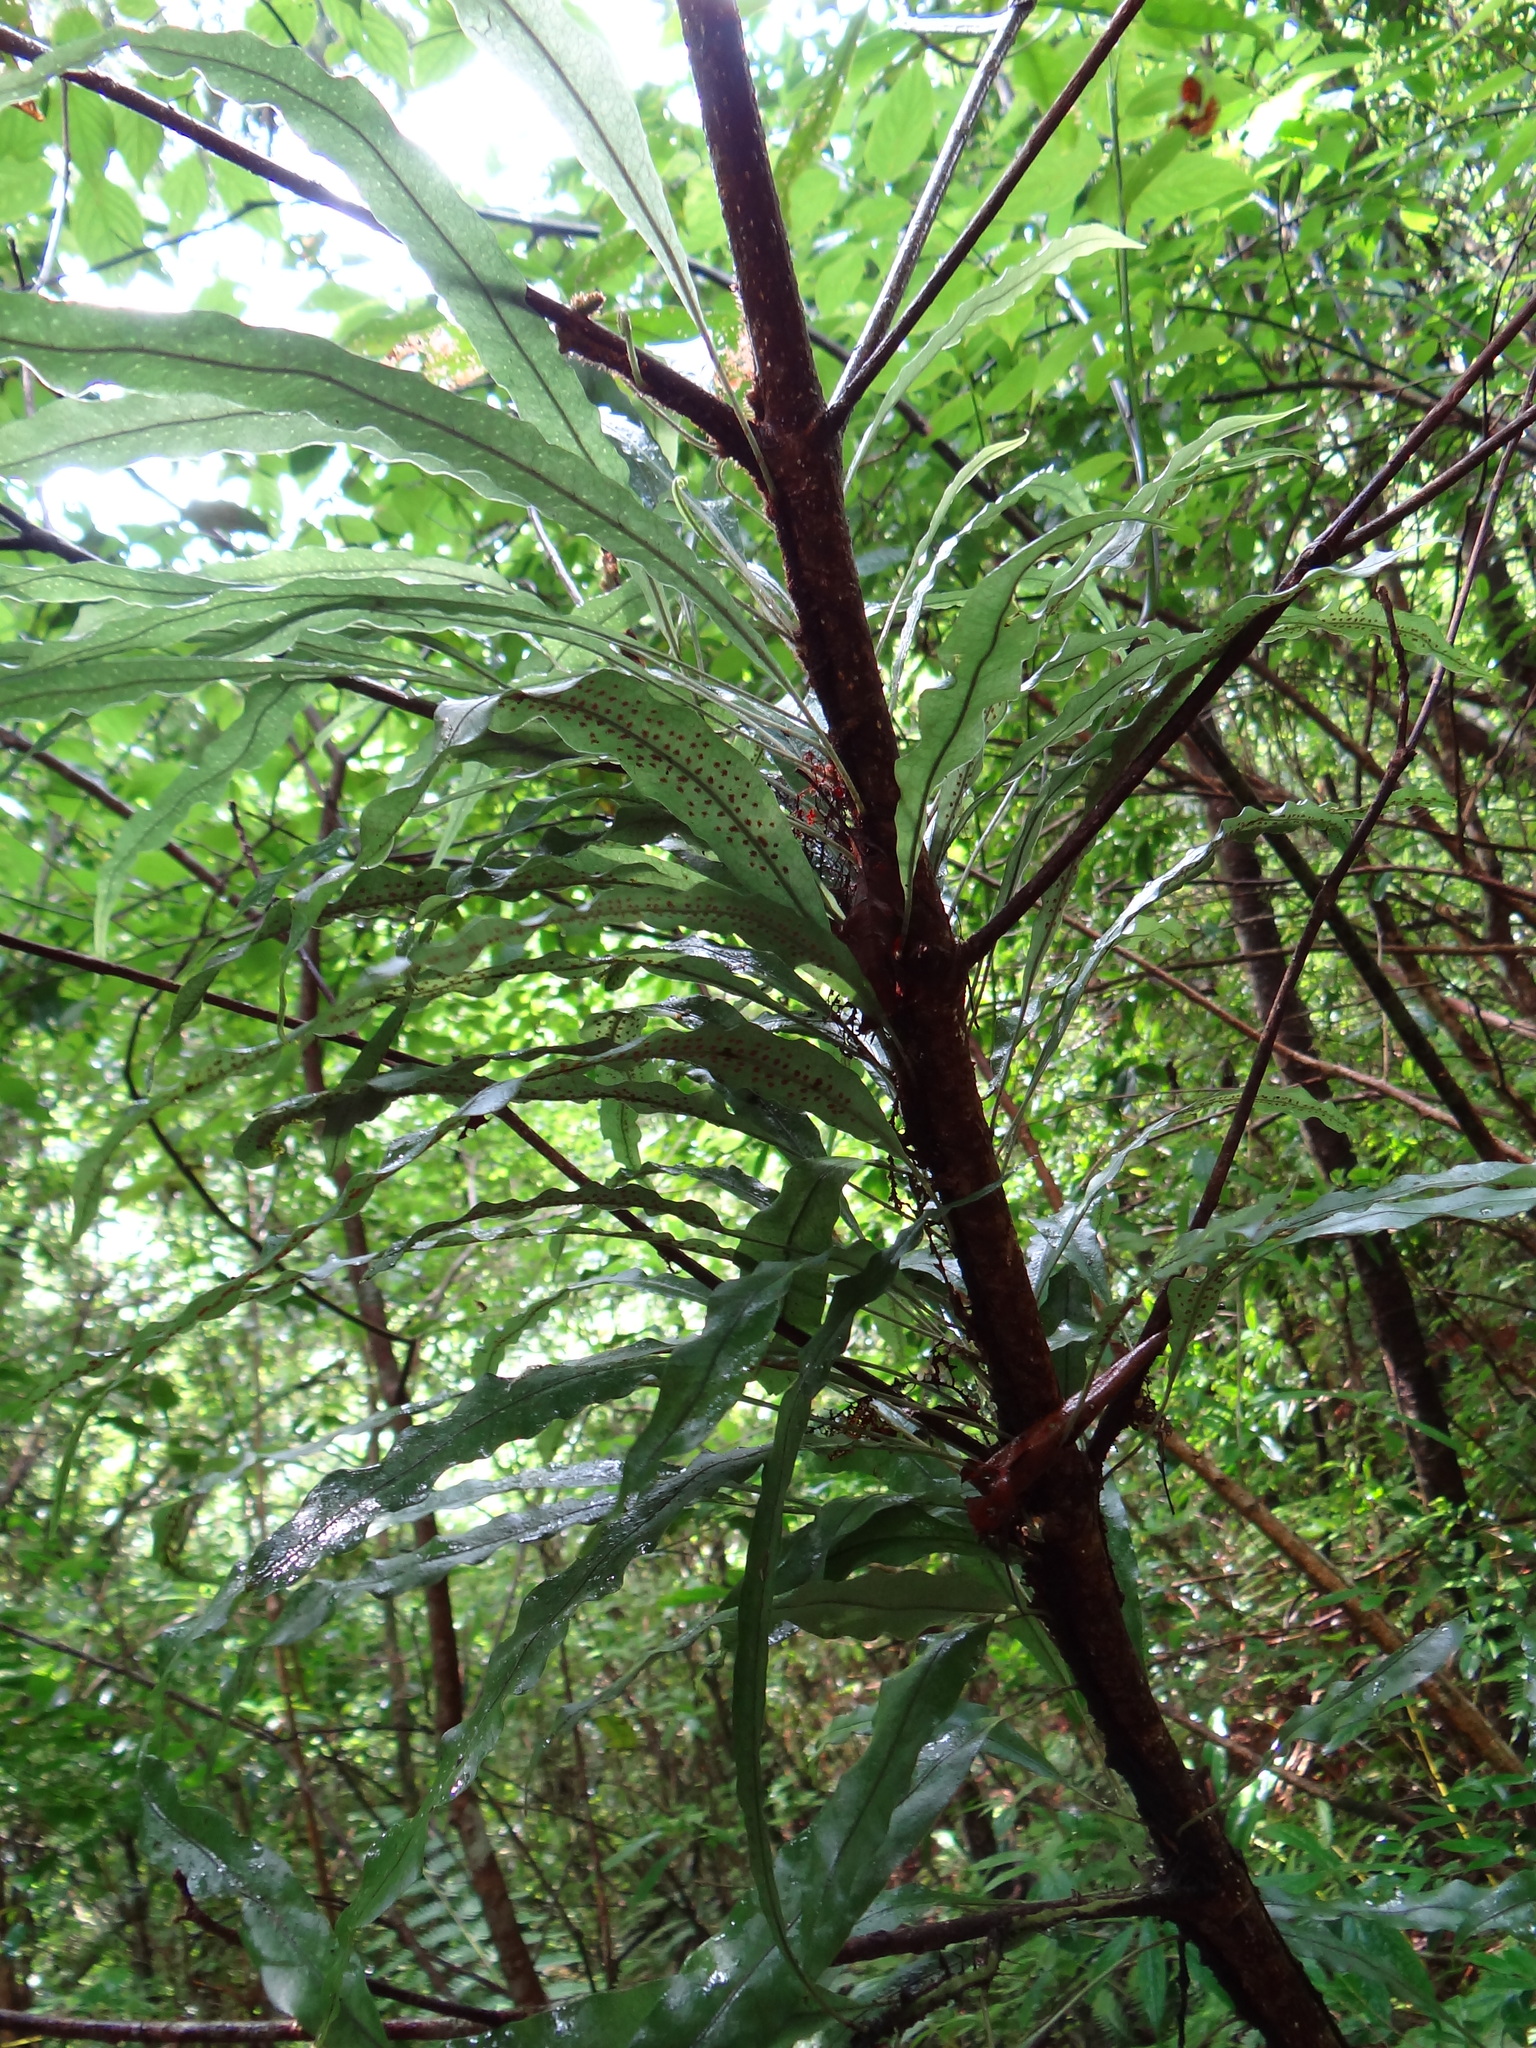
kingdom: Plantae
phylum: Tracheophyta
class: Polypodiopsida
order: Polypodiales
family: Polypodiaceae
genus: Lepisorus
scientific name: Lepisorus superficialis
